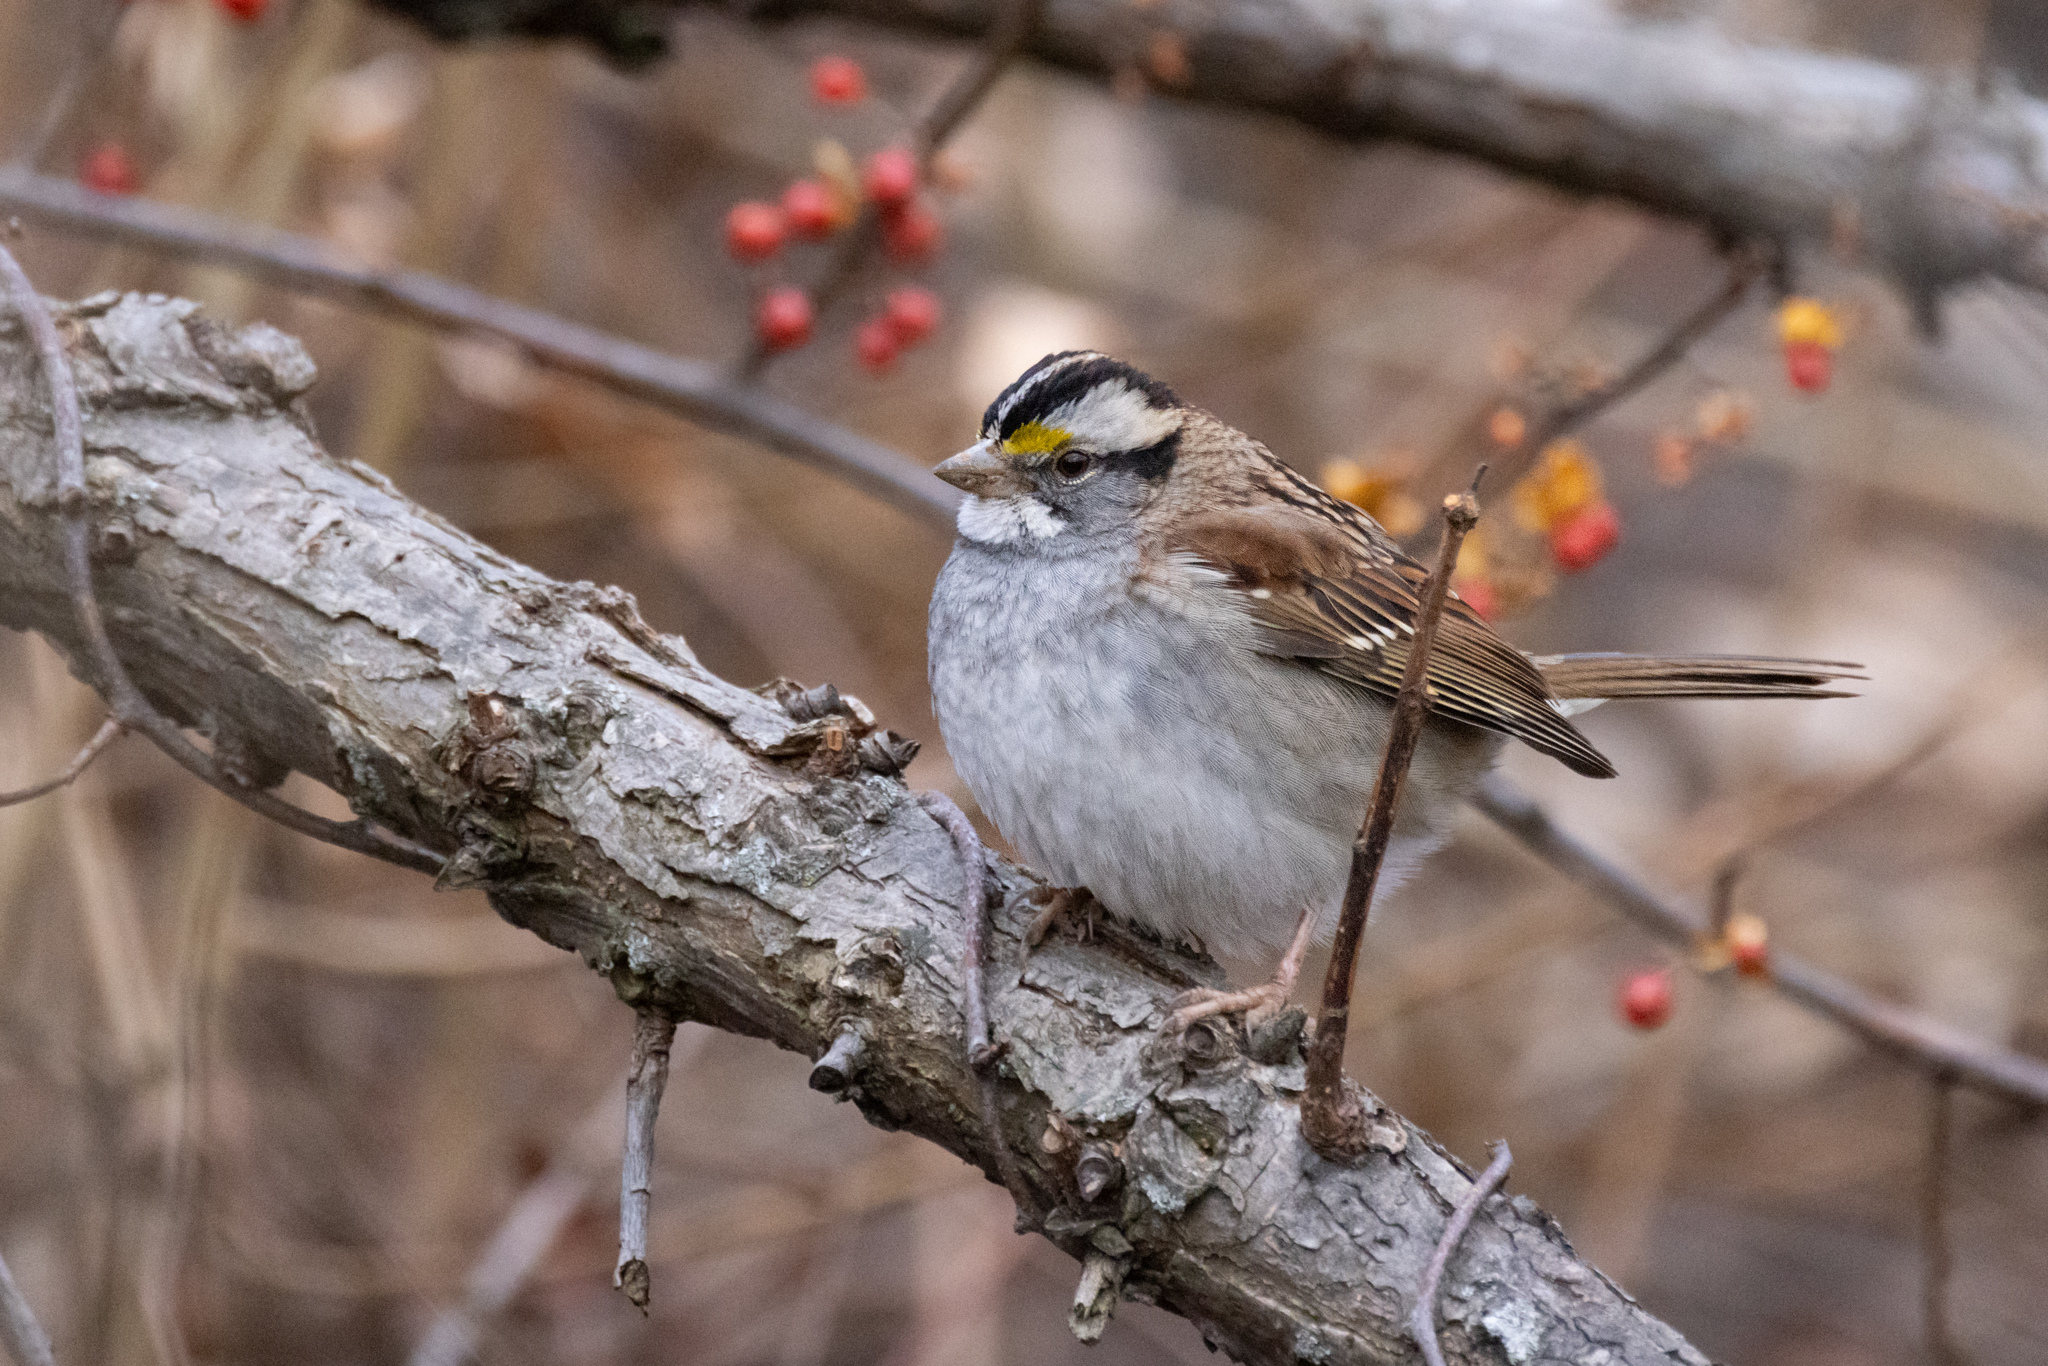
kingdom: Animalia
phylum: Chordata
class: Aves
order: Passeriformes
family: Passerellidae
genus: Zonotrichia
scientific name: Zonotrichia albicollis
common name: White-throated sparrow
